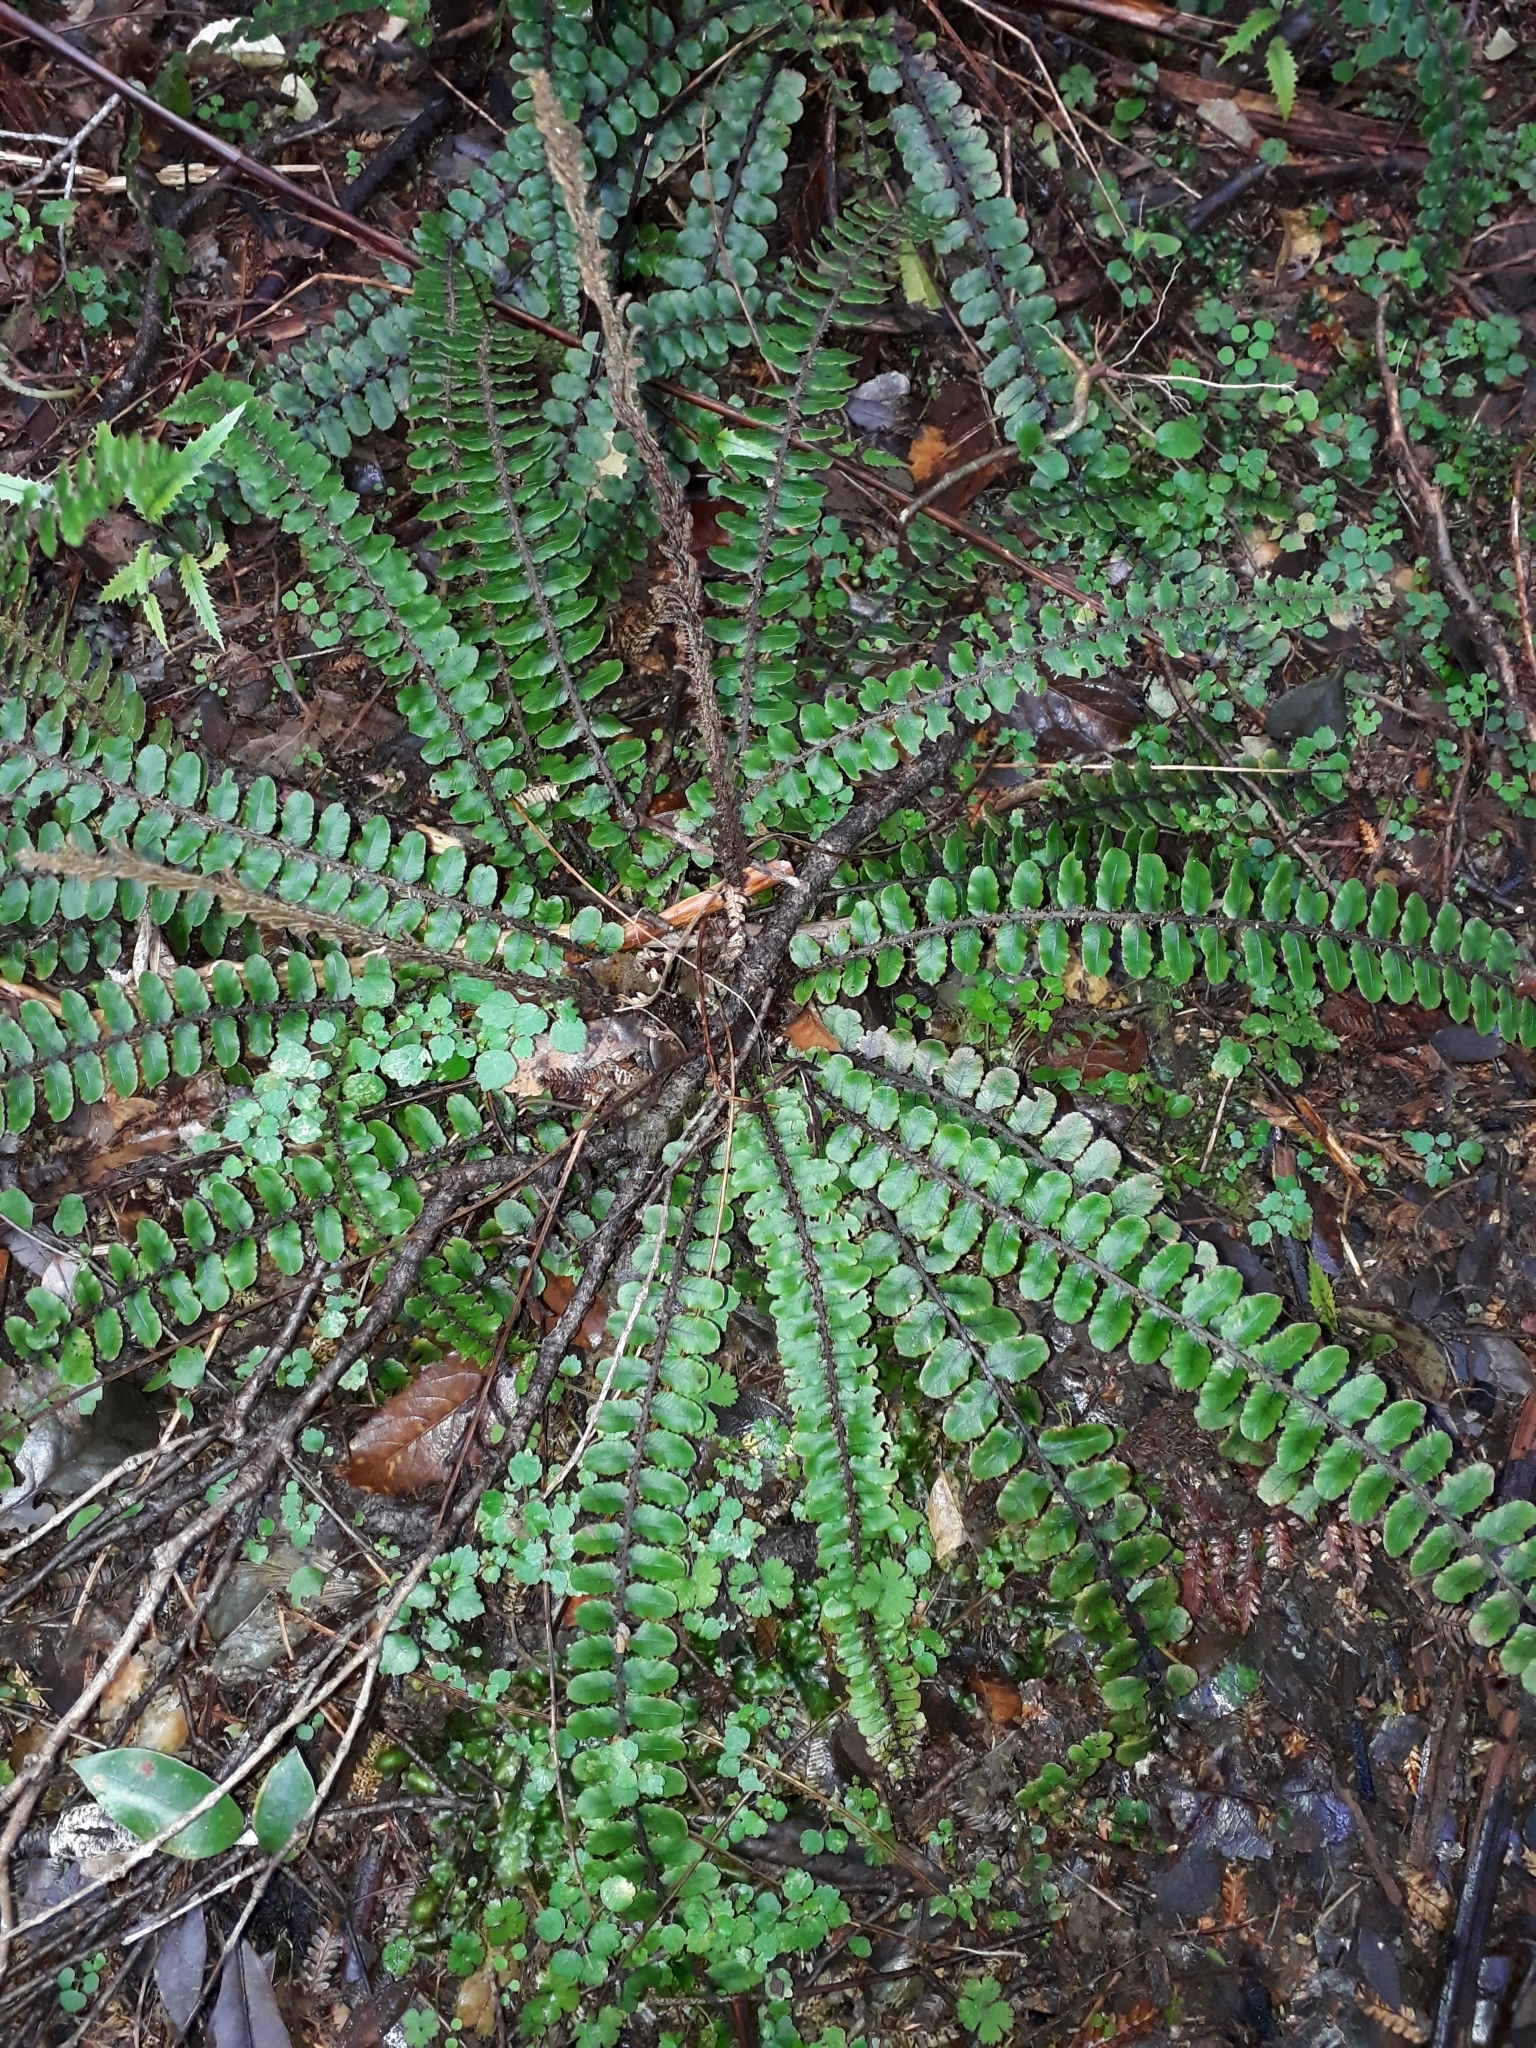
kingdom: Plantae
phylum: Tracheophyta
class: Polypodiopsida
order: Polypodiales
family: Blechnaceae
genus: Cranfillia
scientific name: Cranfillia fluviatilis
